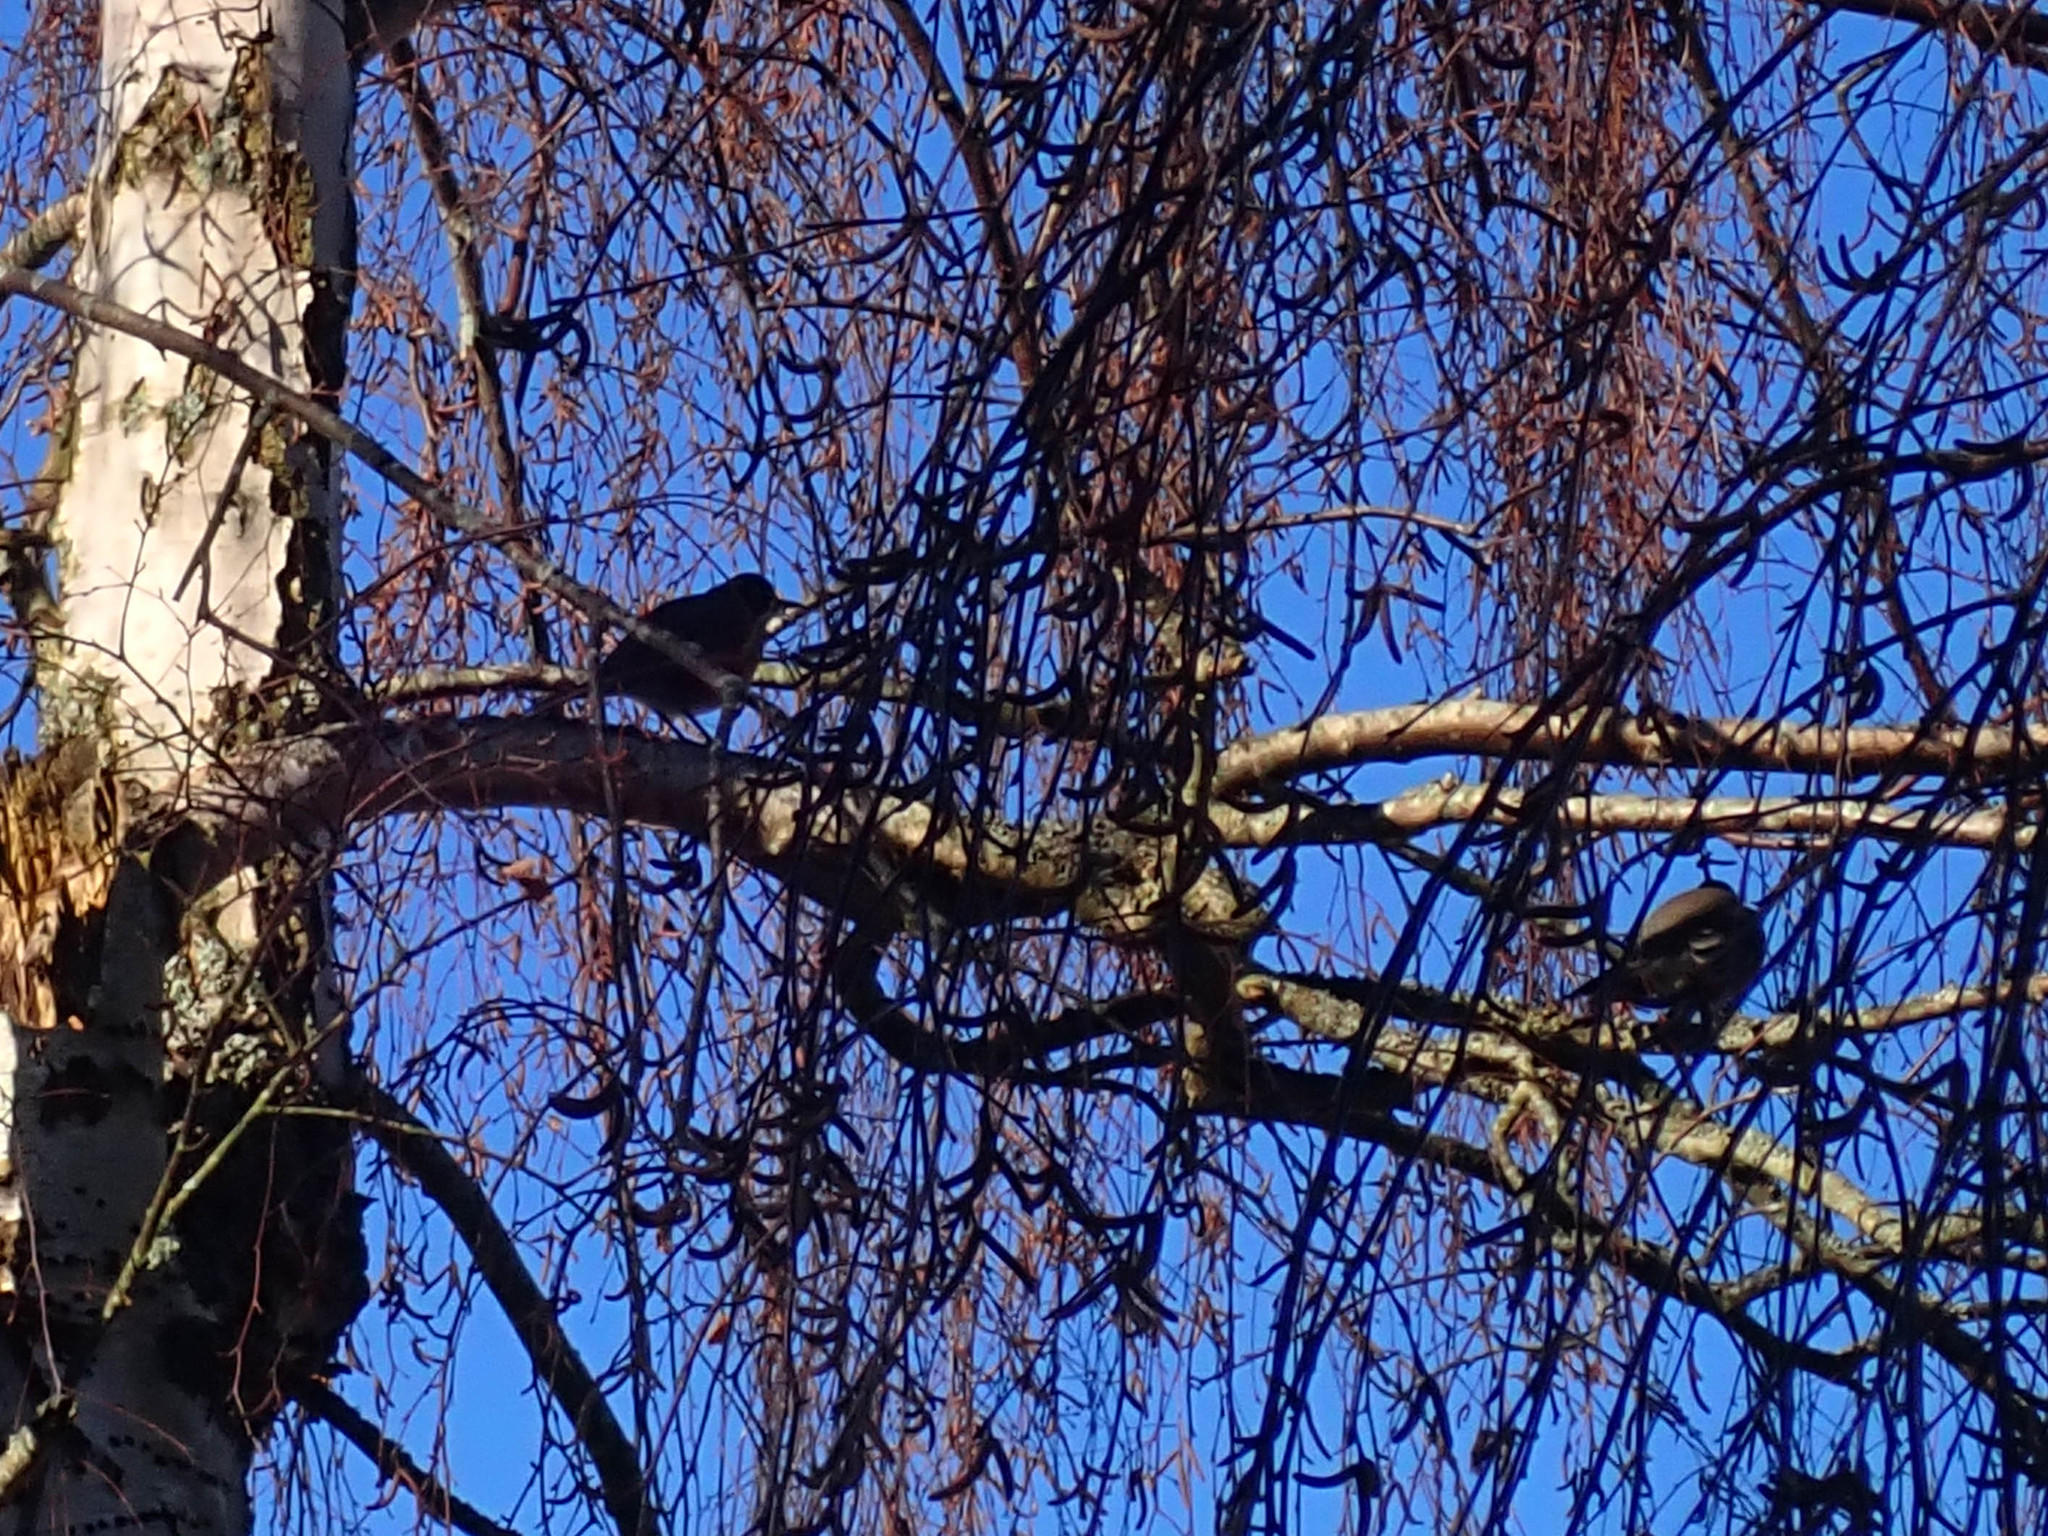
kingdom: Animalia
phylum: Chordata
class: Aves
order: Passeriformes
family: Turdidae
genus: Turdus
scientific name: Turdus migratorius
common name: American robin
